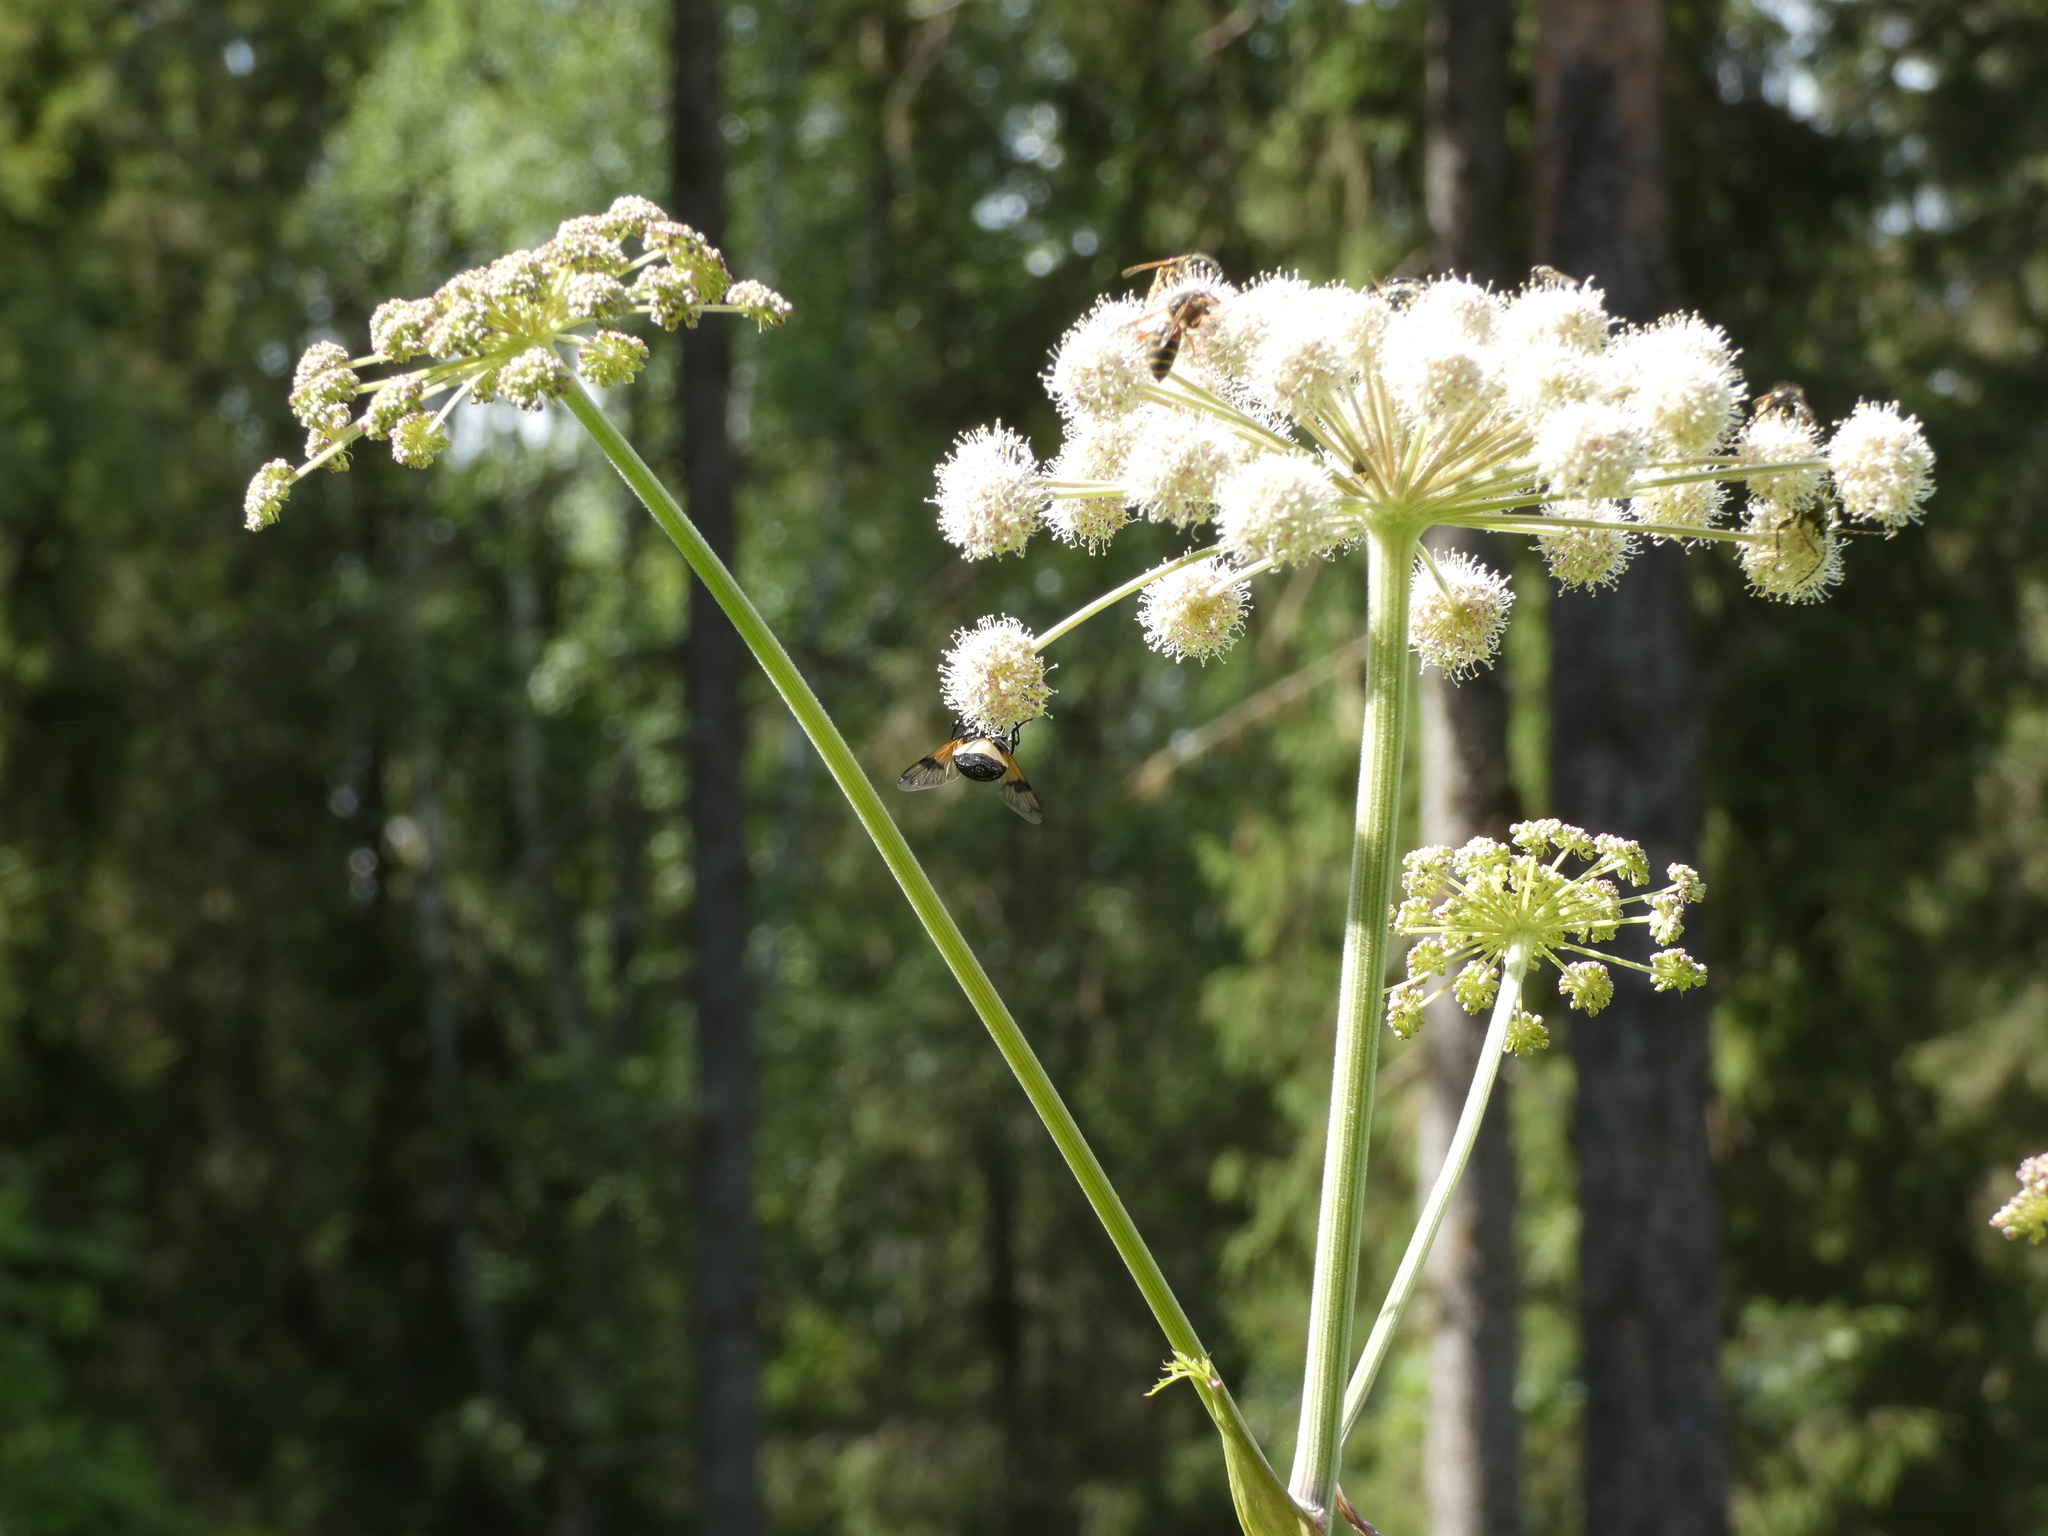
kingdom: Animalia
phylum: Arthropoda
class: Insecta
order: Diptera
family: Syrphidae
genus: Volucella
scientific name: Volucella pellucens
